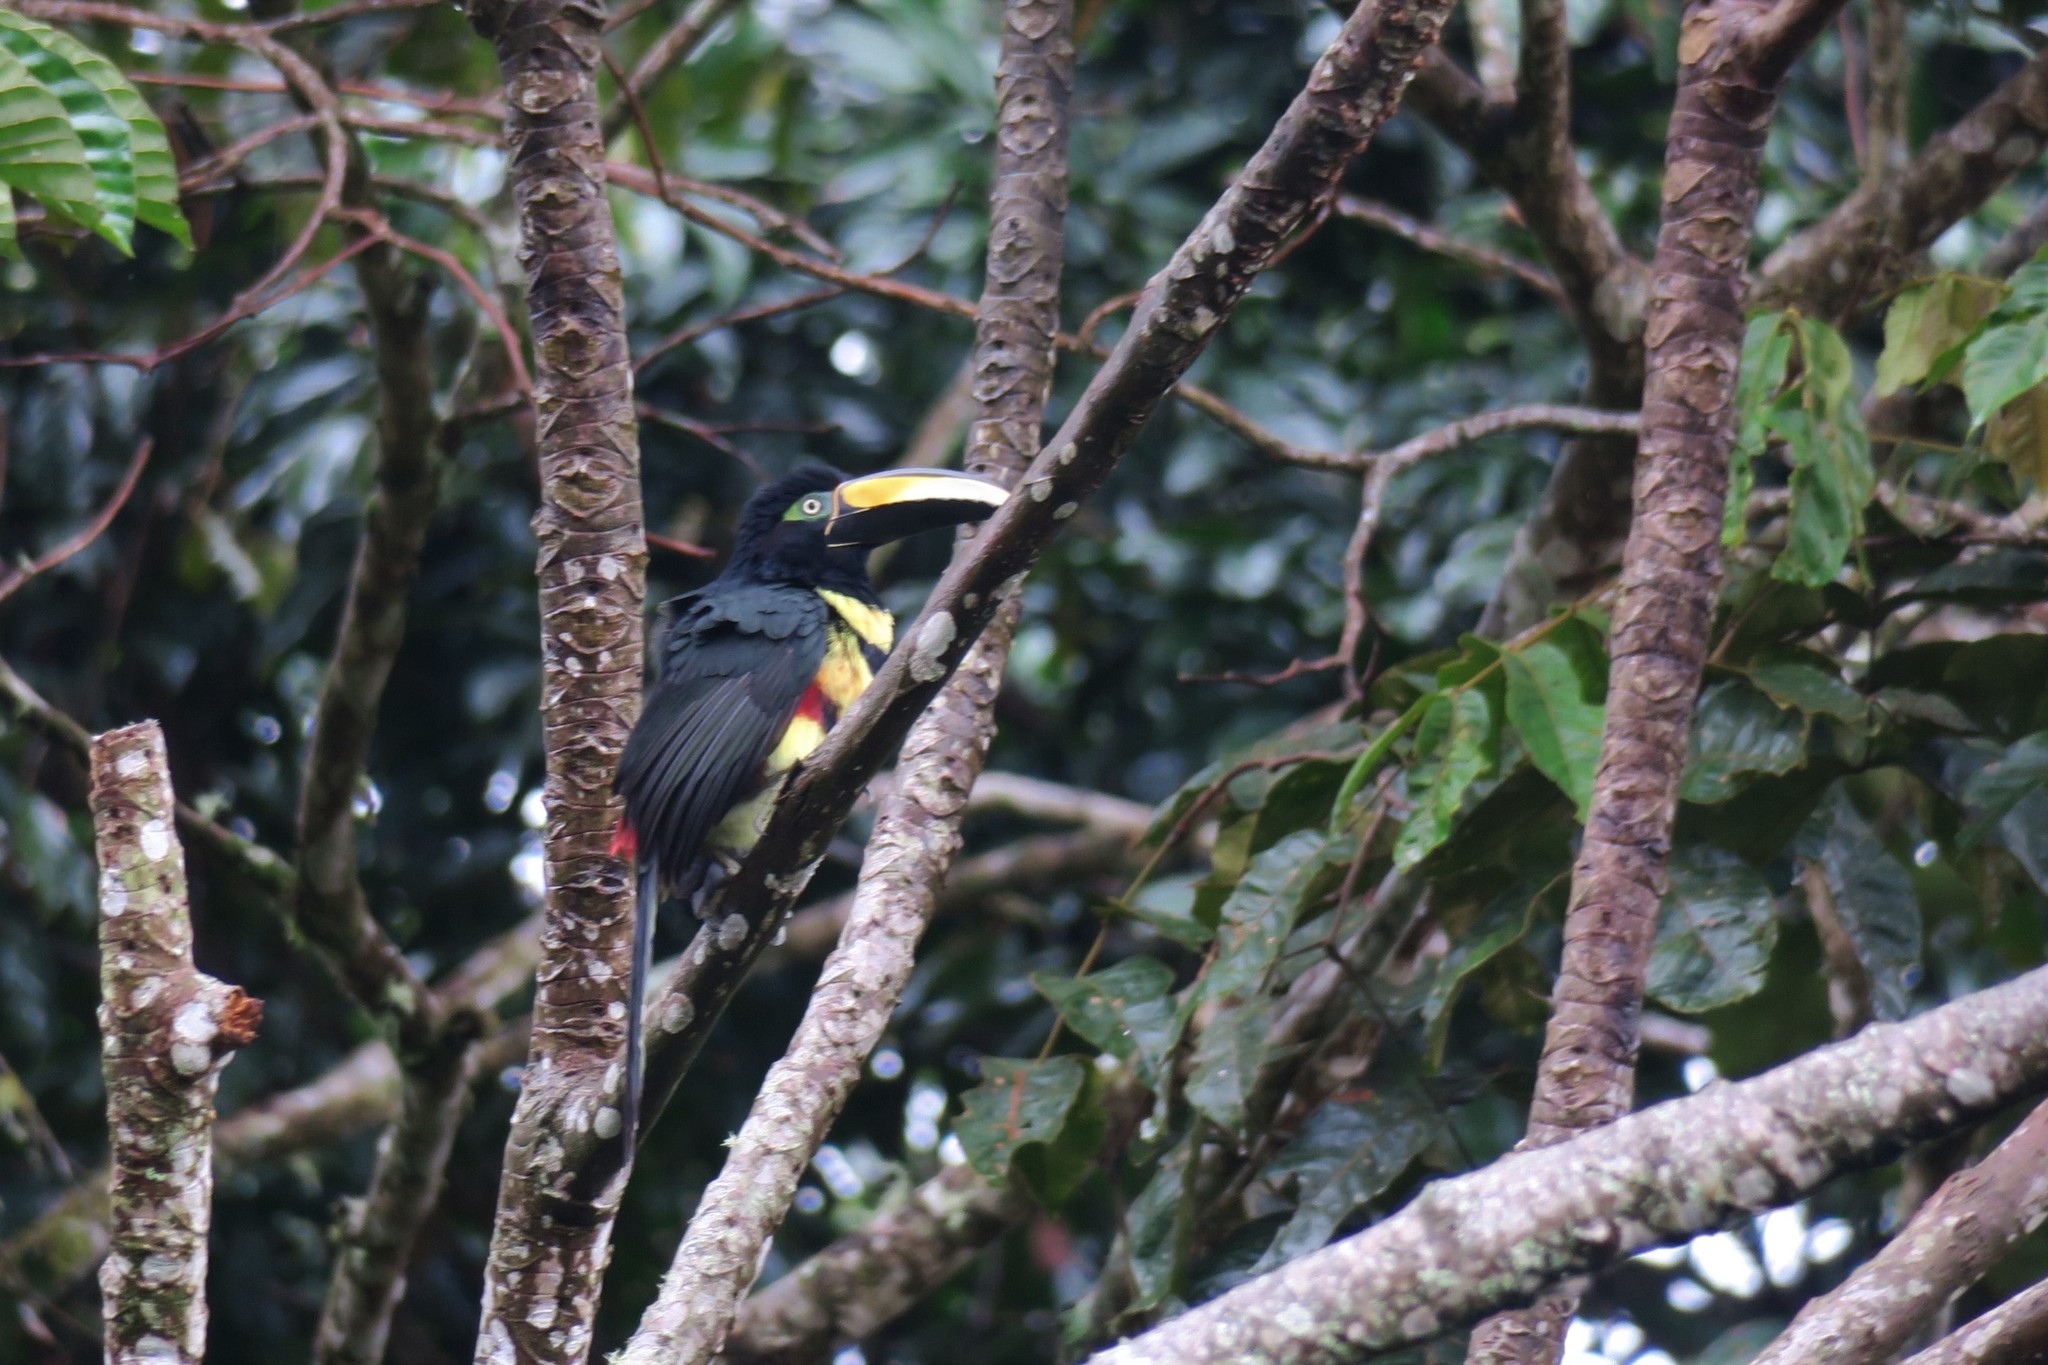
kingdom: Animalia
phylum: Chordata
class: Aves
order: Piciformes
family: Ramphastidae
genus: Pteroglossus
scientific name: Pteroglossus pluricinctus
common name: Many-banded aracari
